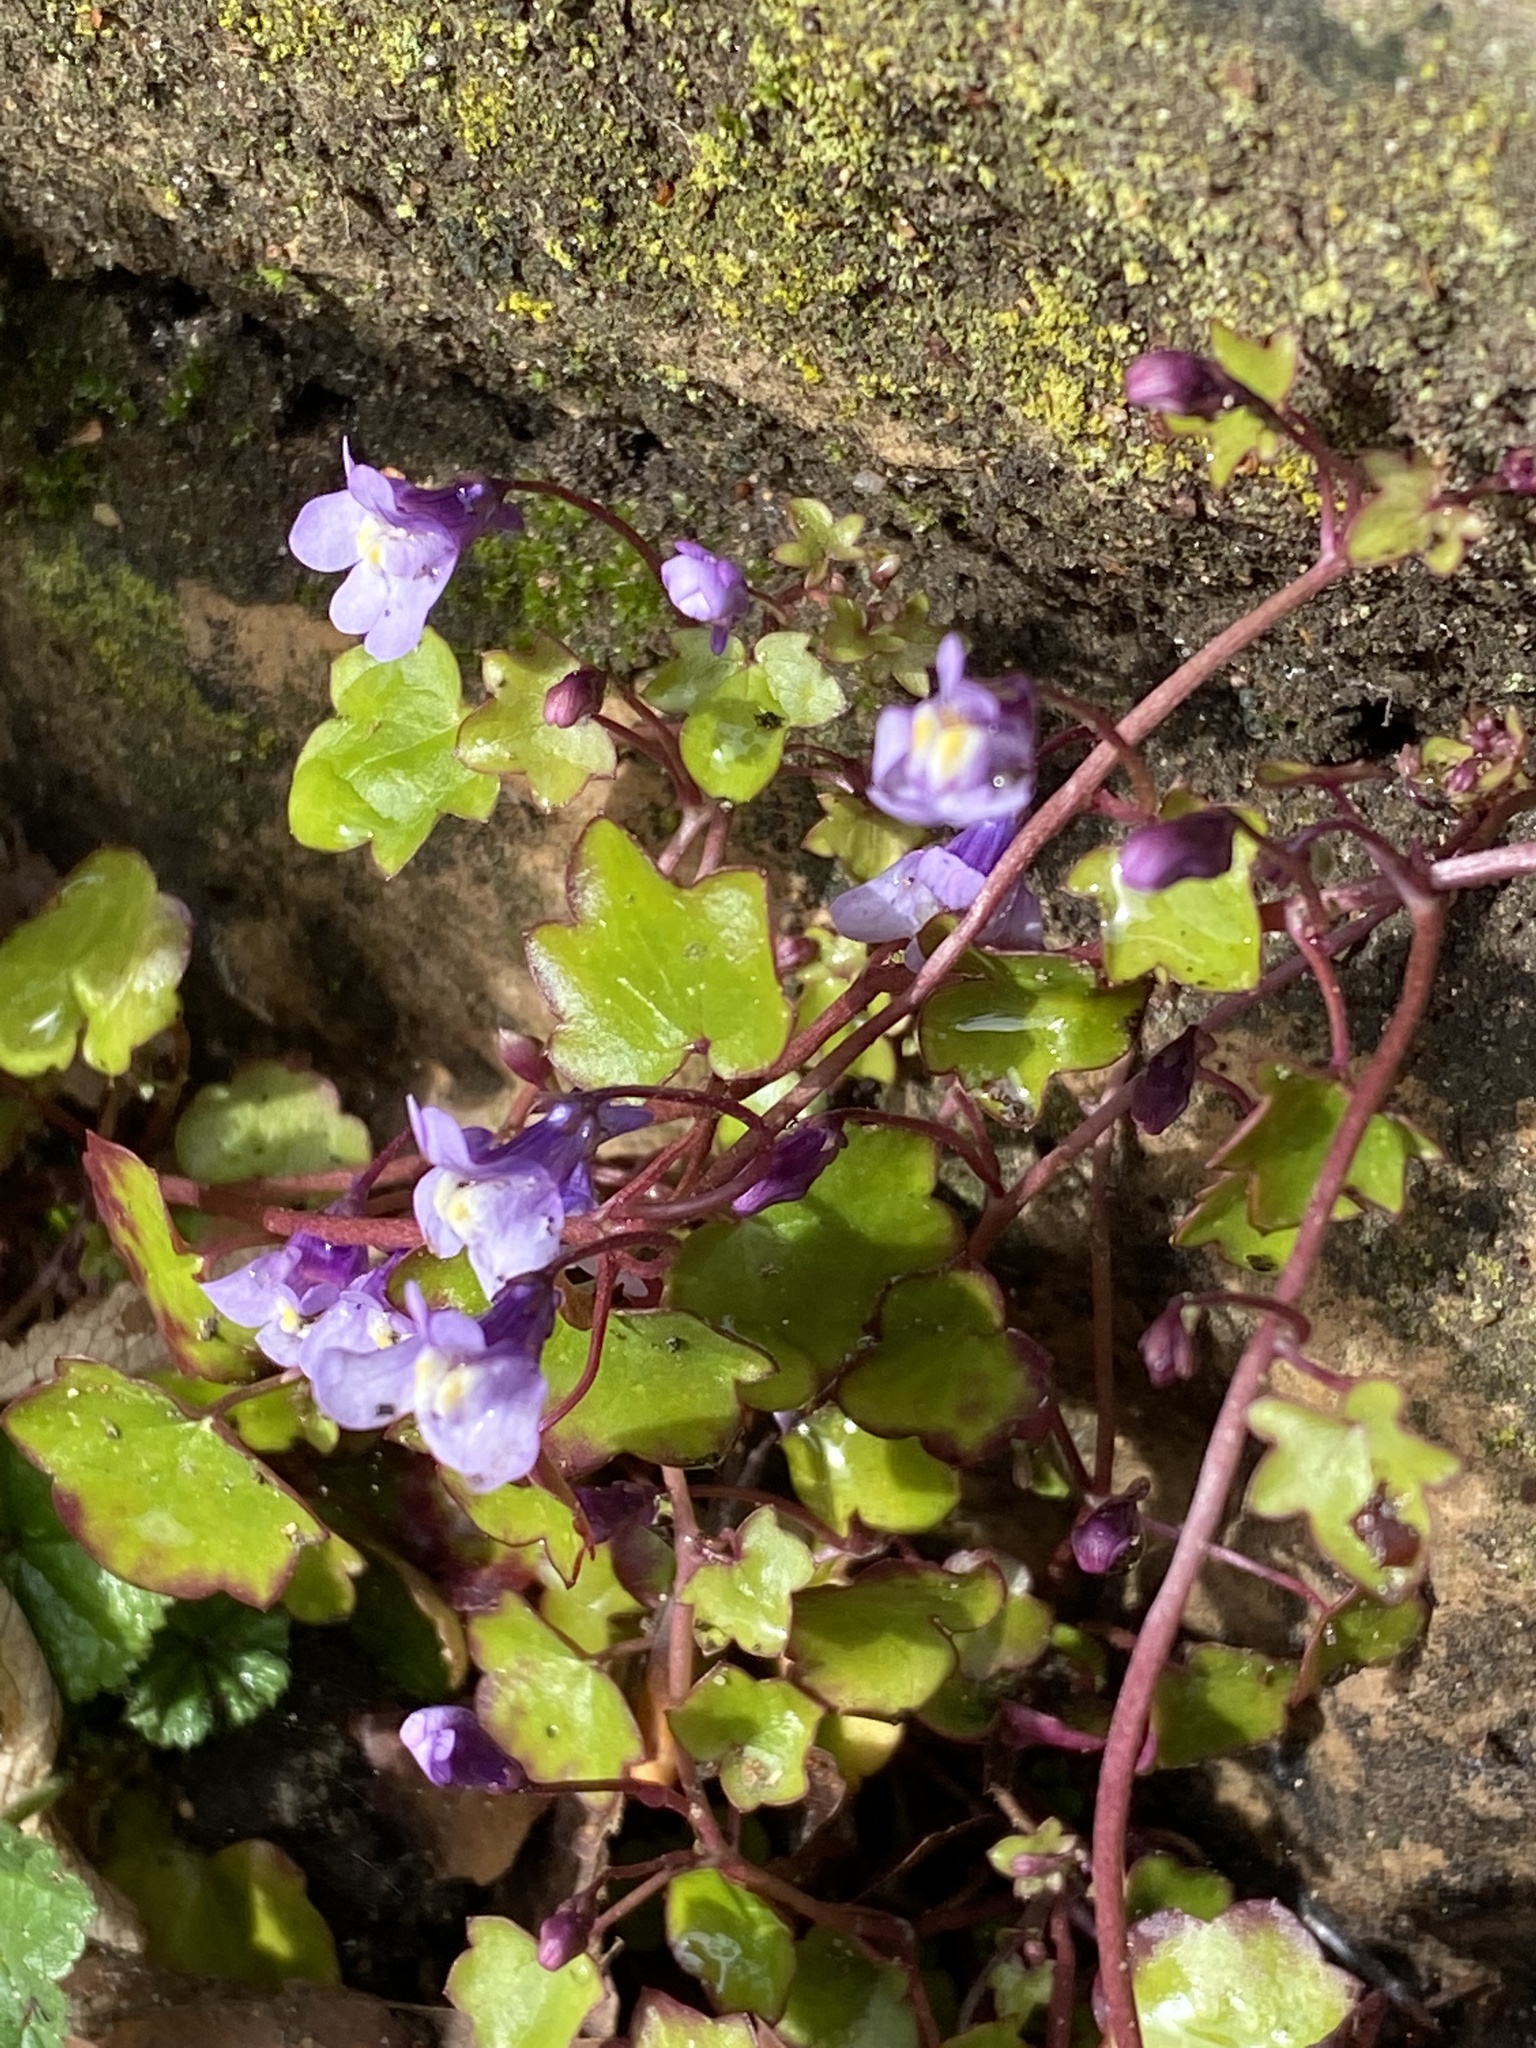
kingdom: Plantae
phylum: Tracheophyta
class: Magnoliopsida
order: Lamiales
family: Plantaginaceae
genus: Cymbalaria
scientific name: Cymbalaria muralis
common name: Ivy-leaved toadflax
